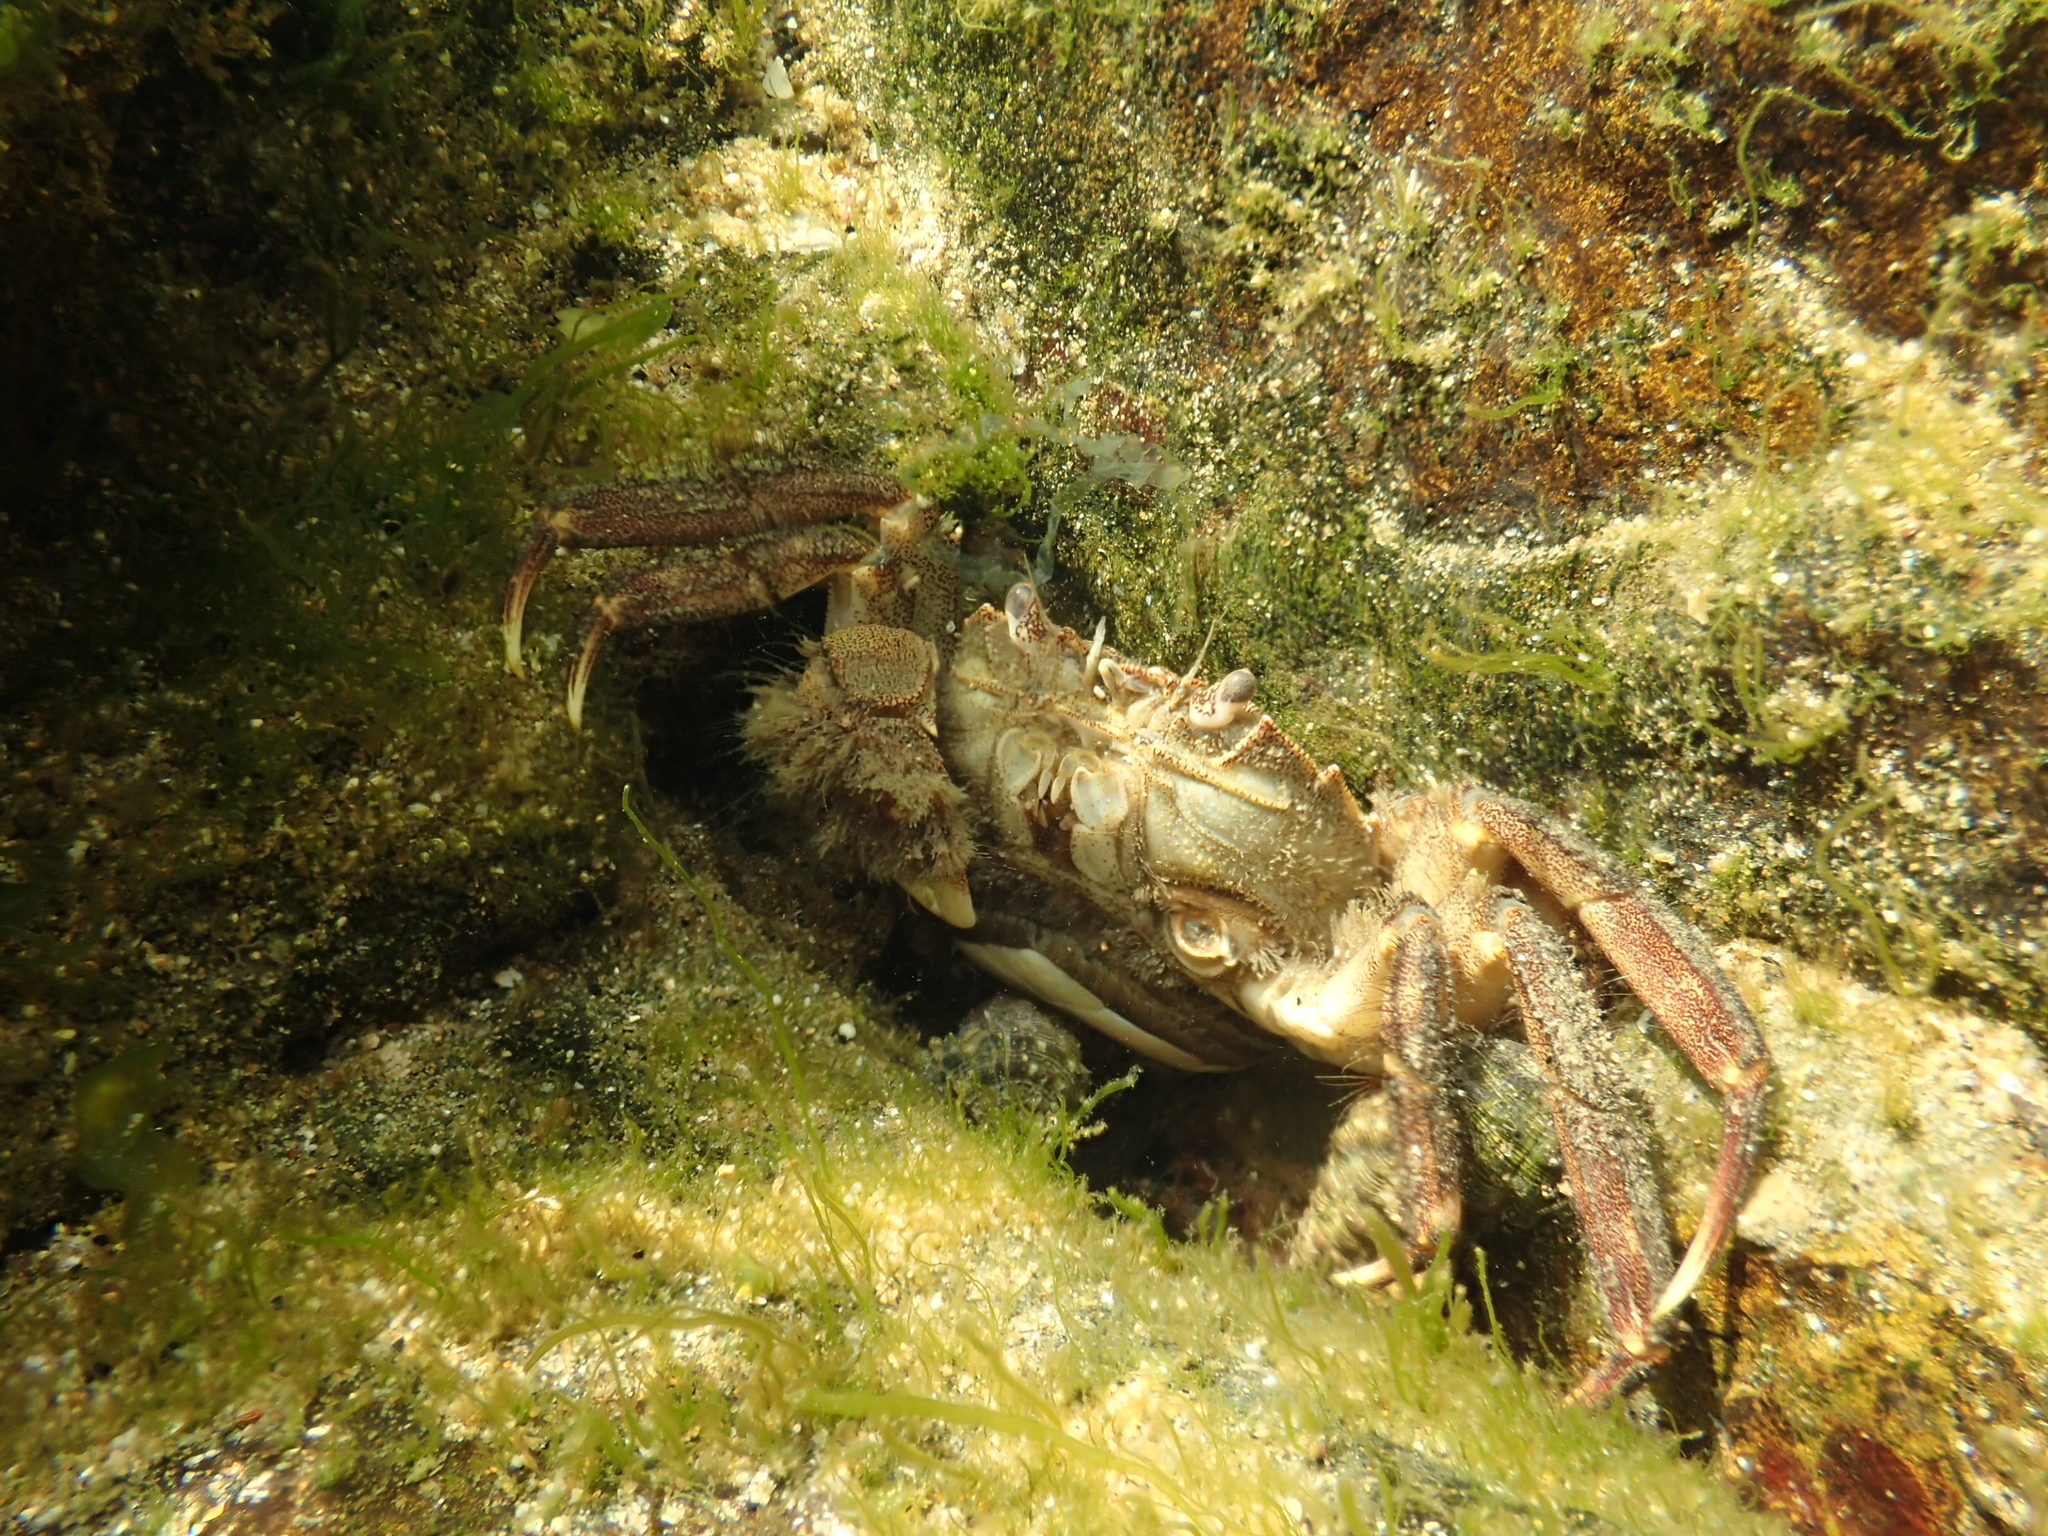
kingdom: Animalia
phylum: Arthropoda
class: Malacostraca
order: Decapoda
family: Varunidae
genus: Eriocheir
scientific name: Eriocheir japonica
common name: Japanese mitten crab
